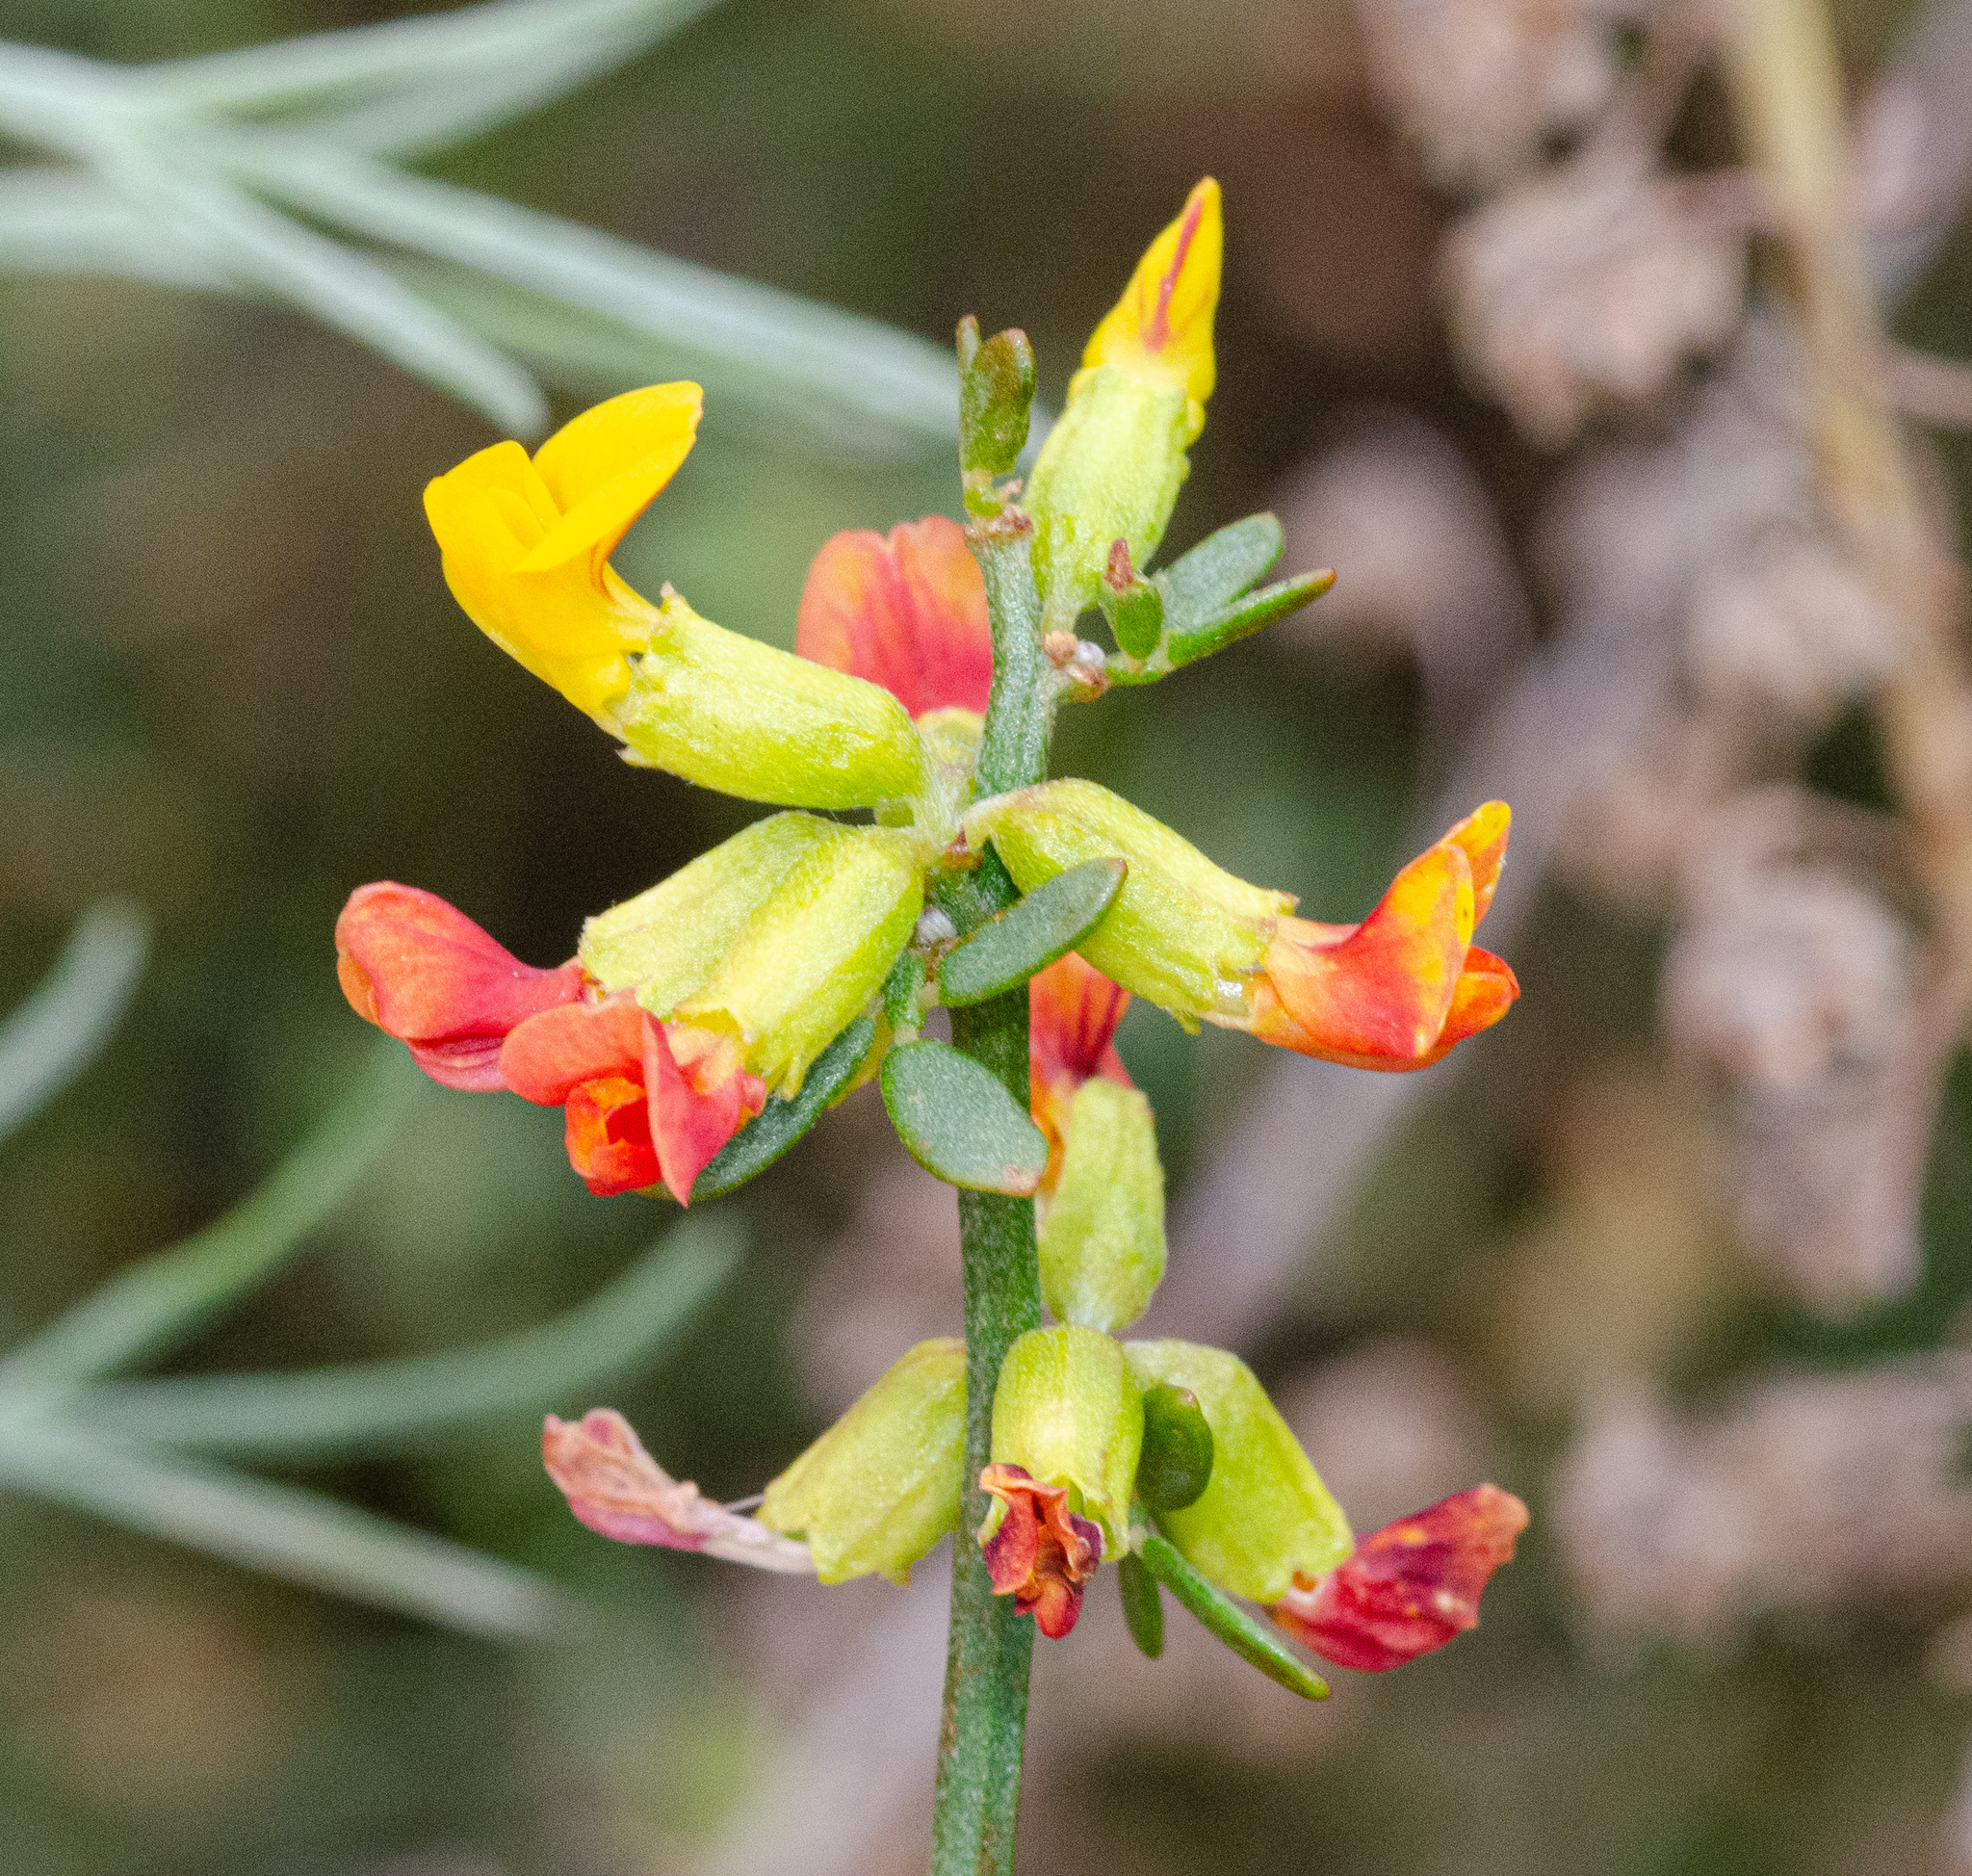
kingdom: Plantae
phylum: Tracheophyta
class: Magnoliopsida
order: Fabales
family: Fabaceae
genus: Acmispon
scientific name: Acmispon junceus
